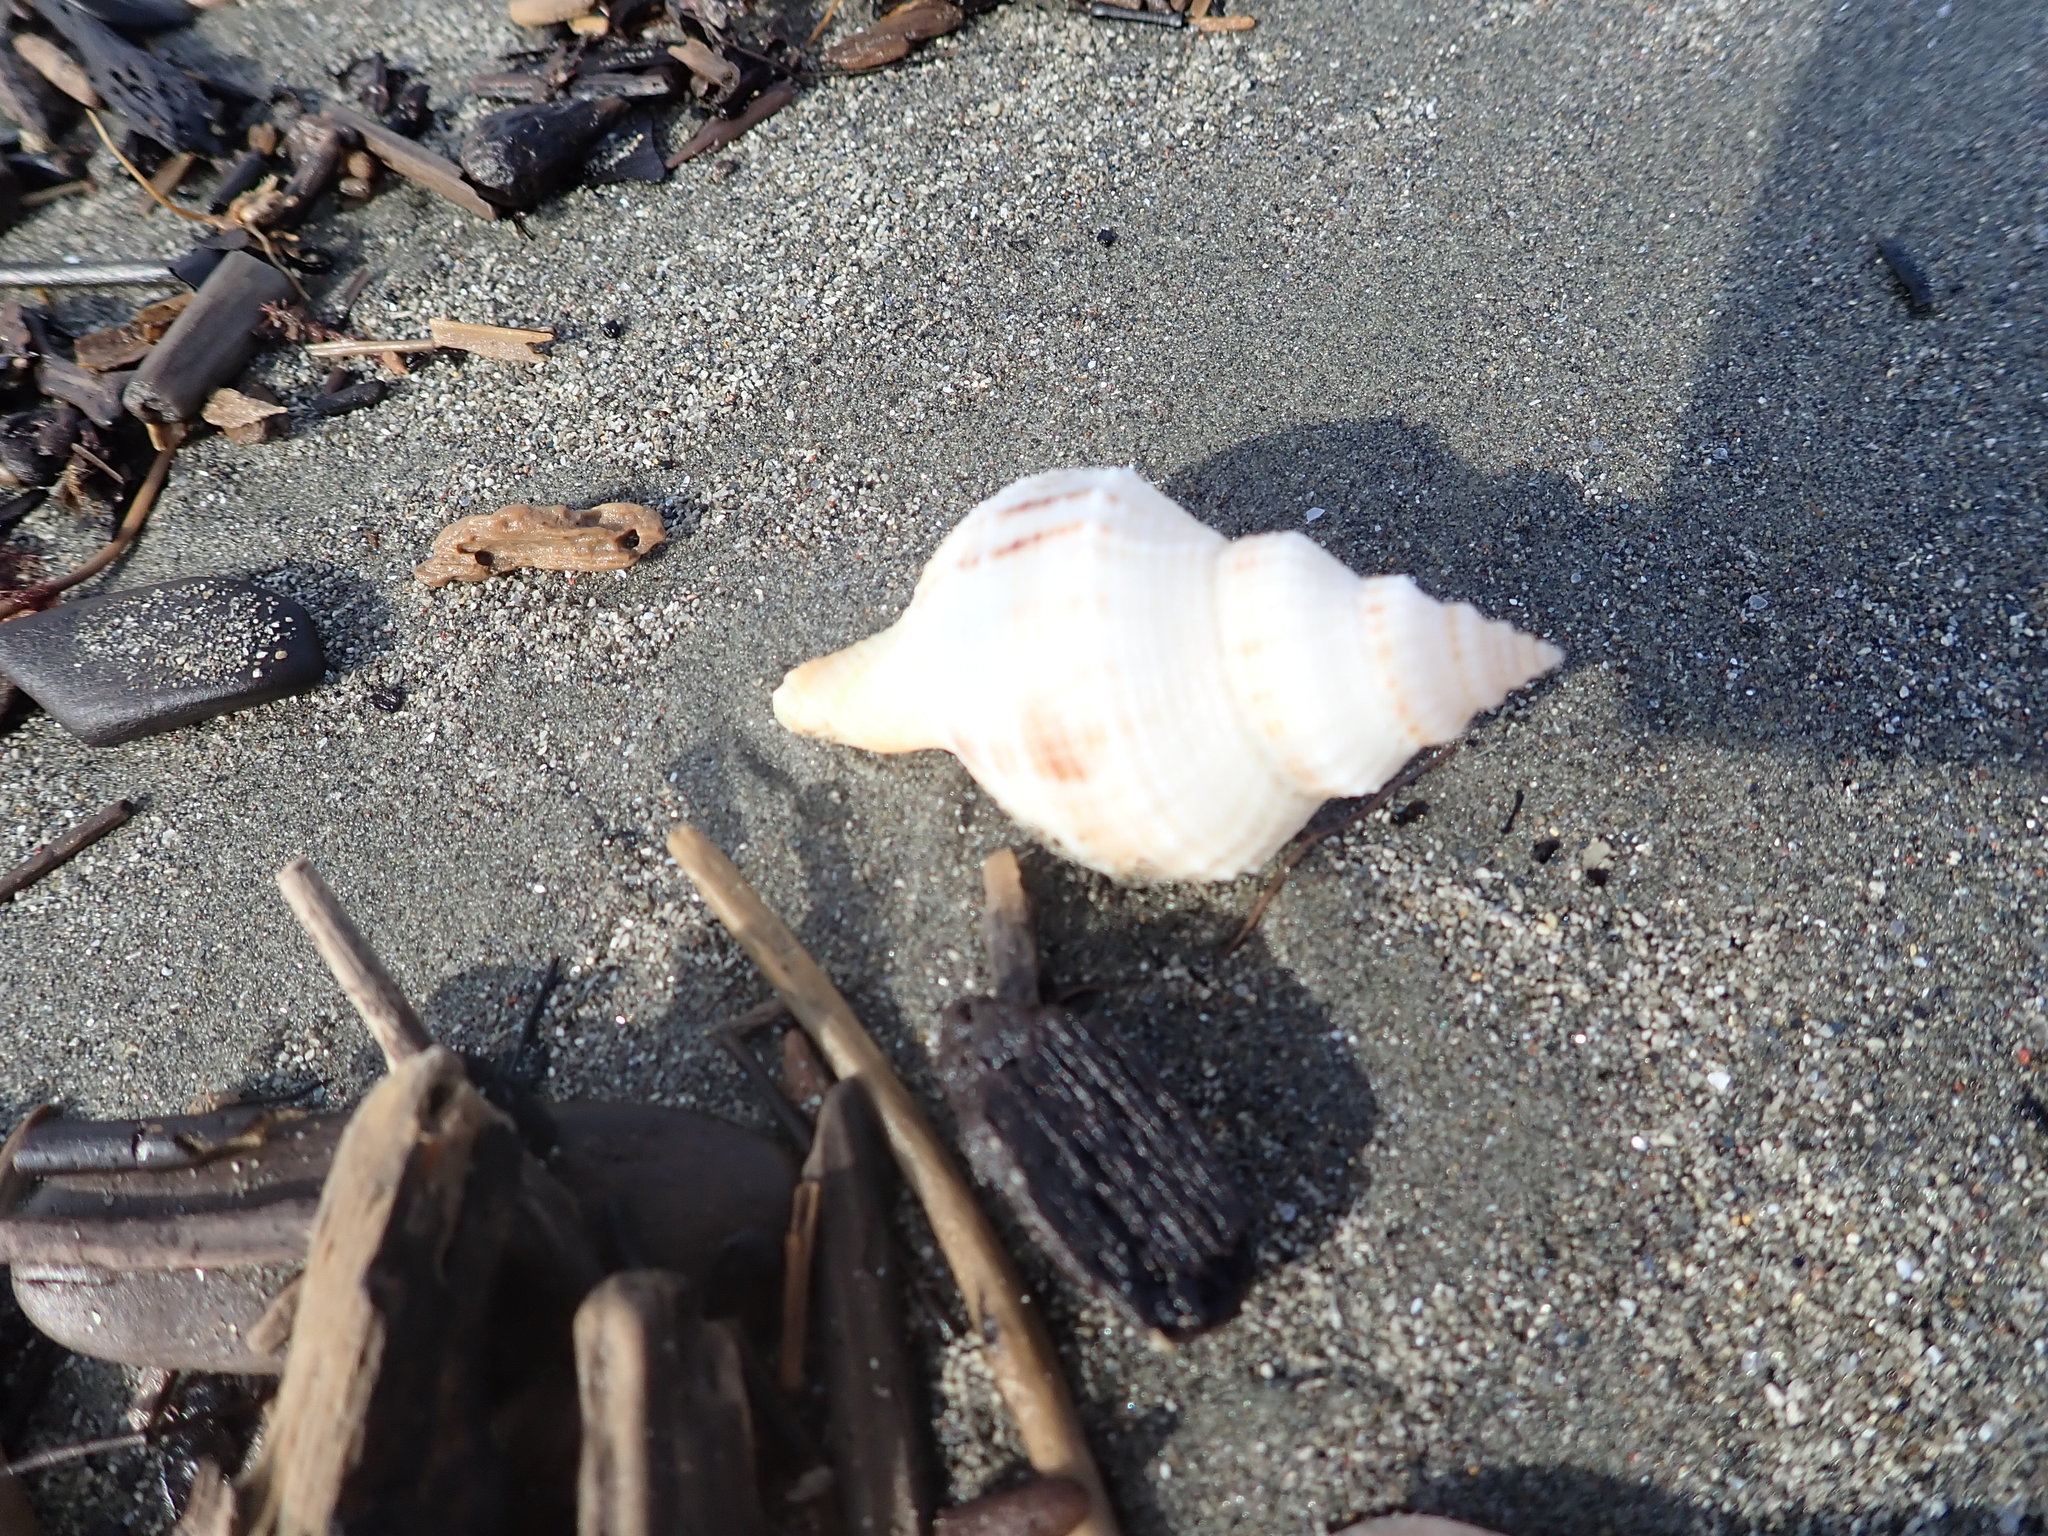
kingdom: Animalia
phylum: Mollusca
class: Gastropoda
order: Neogastropoda
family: Prosiphonidae
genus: Austrofusus
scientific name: Austrofusus glans
